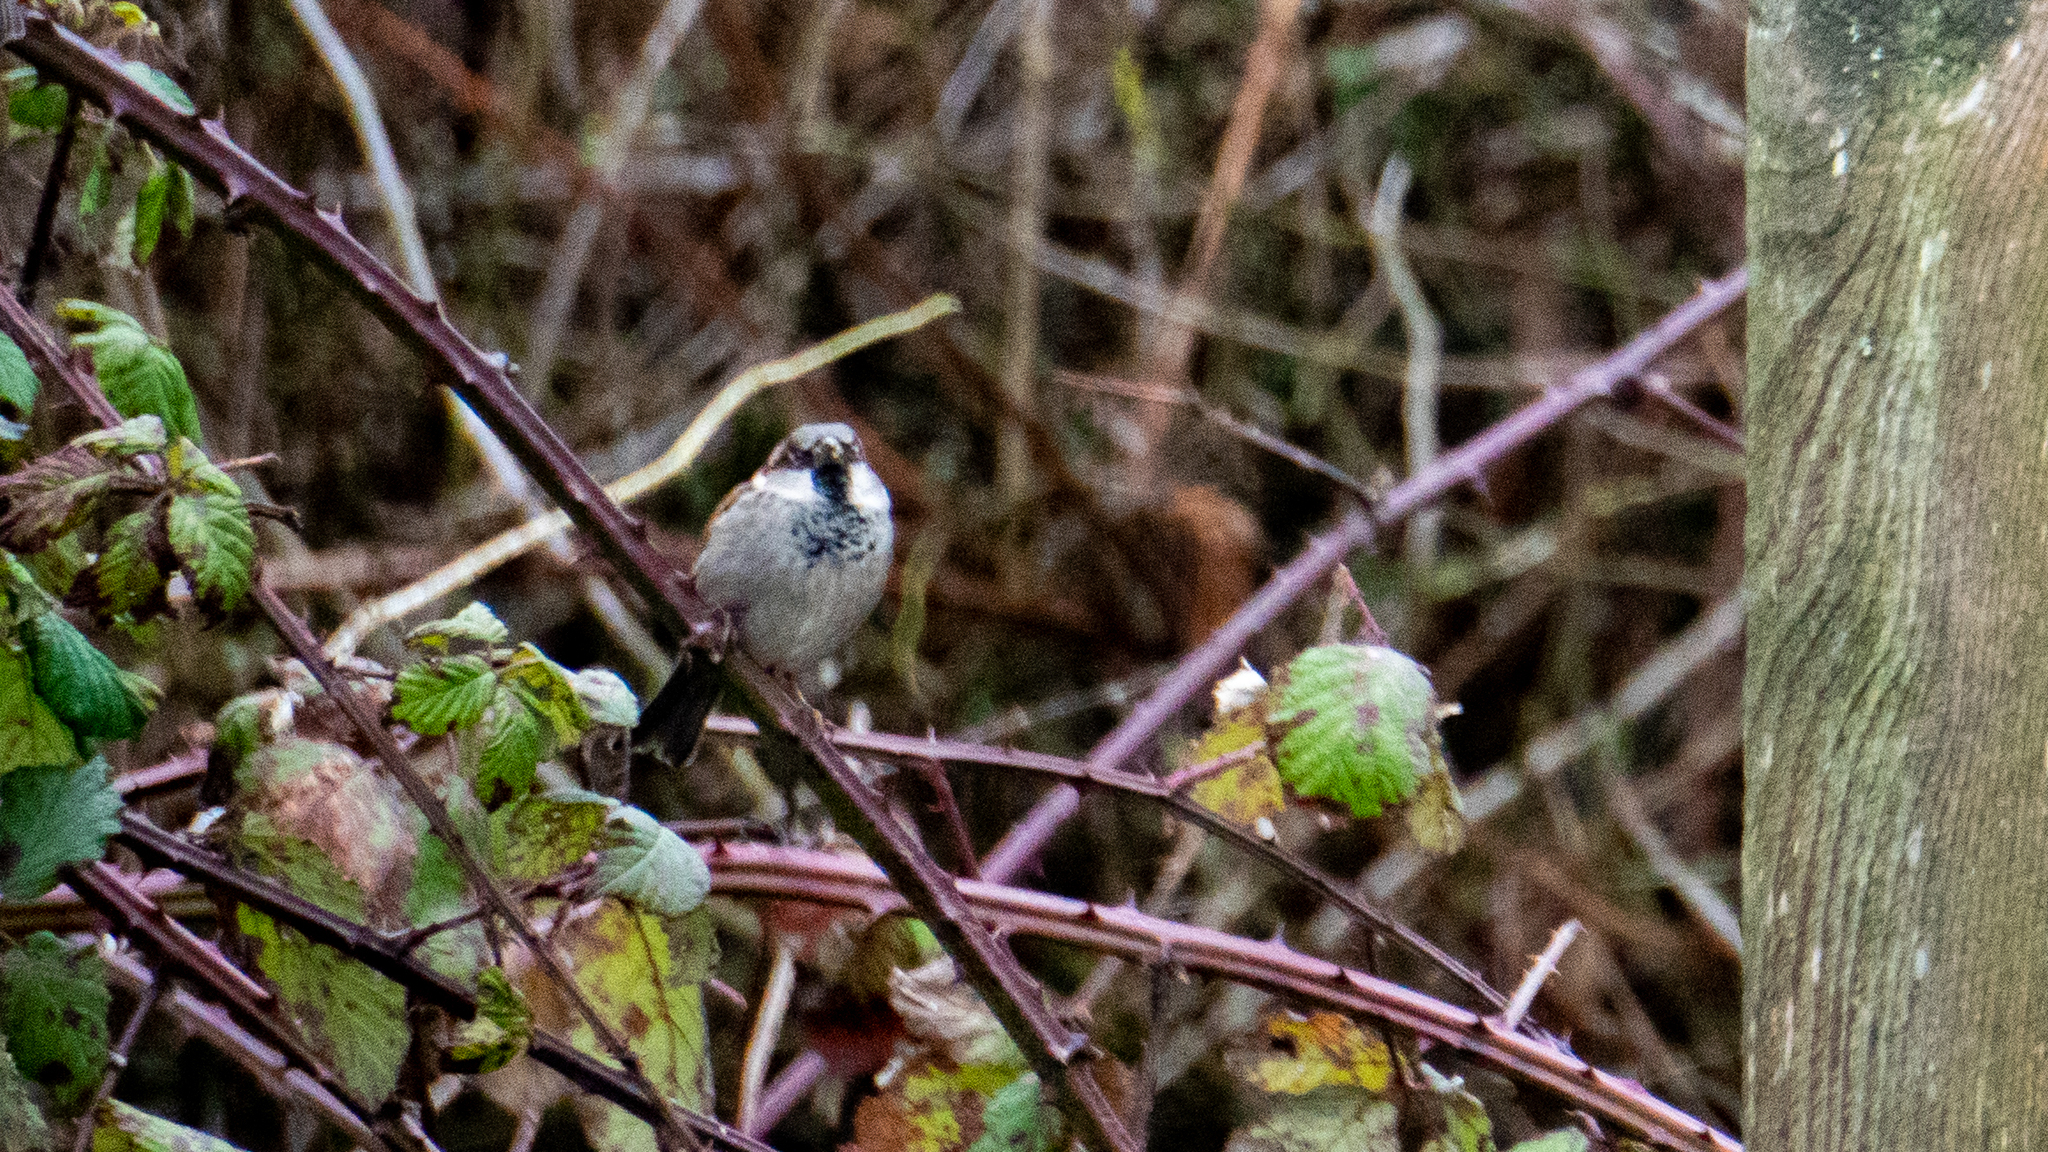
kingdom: Animalia
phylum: Chordata
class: Aves
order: Passeriformes
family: Passeridae
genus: Passer
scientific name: Passer domesticus
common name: House sparrow
